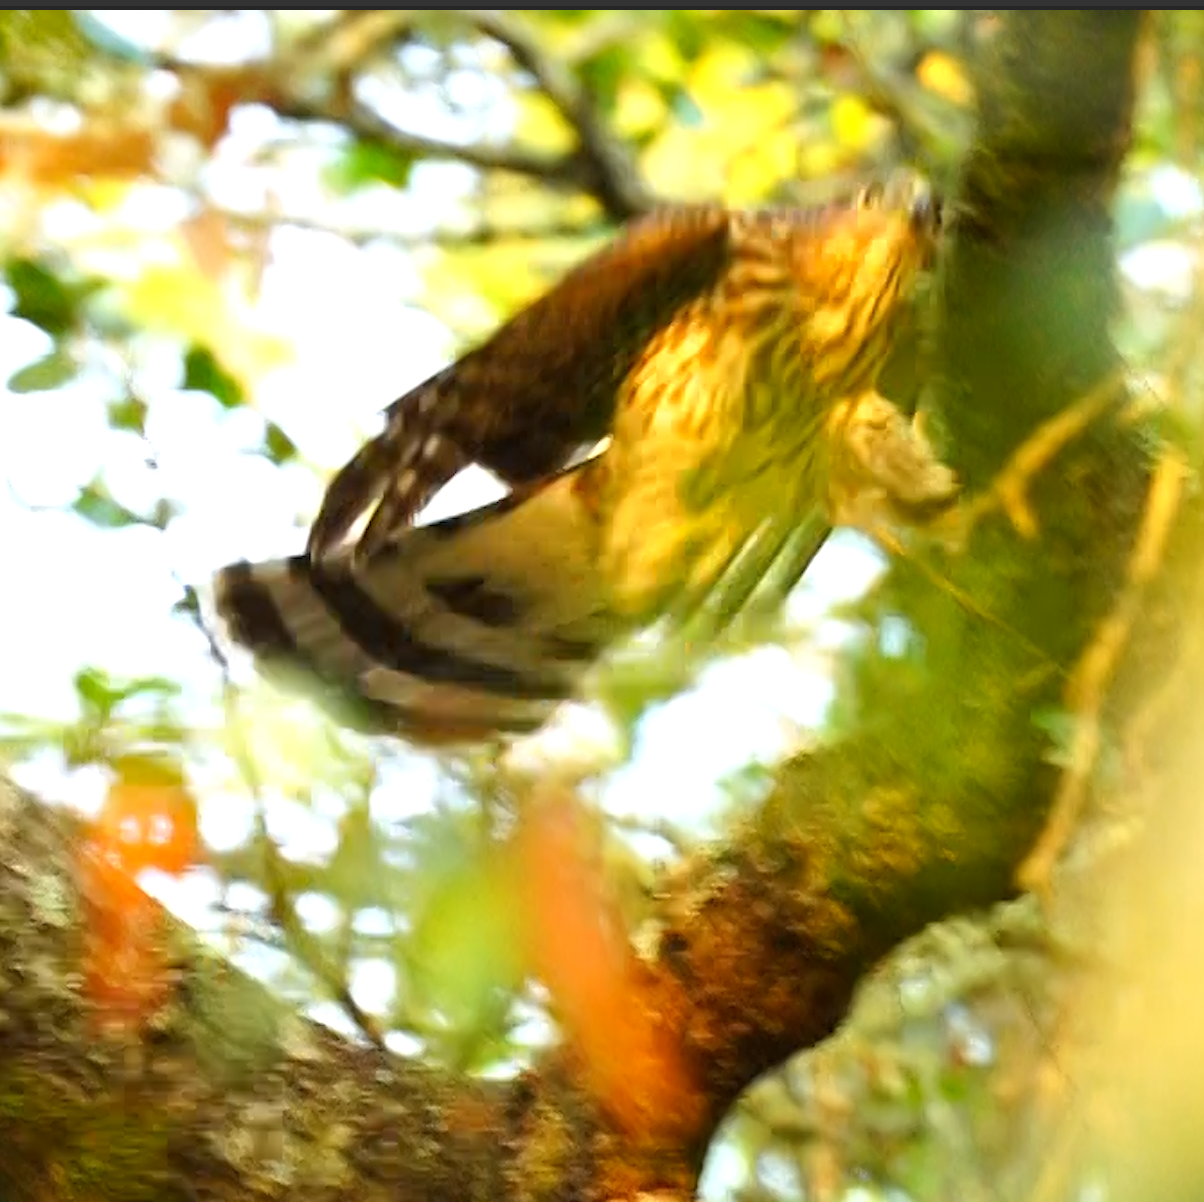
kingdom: Animalia
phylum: Chordata
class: Aves
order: Accipitriformes
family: Accipitridae
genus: Accipiter
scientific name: Accipiter cooperii
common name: Cooper's hawk
